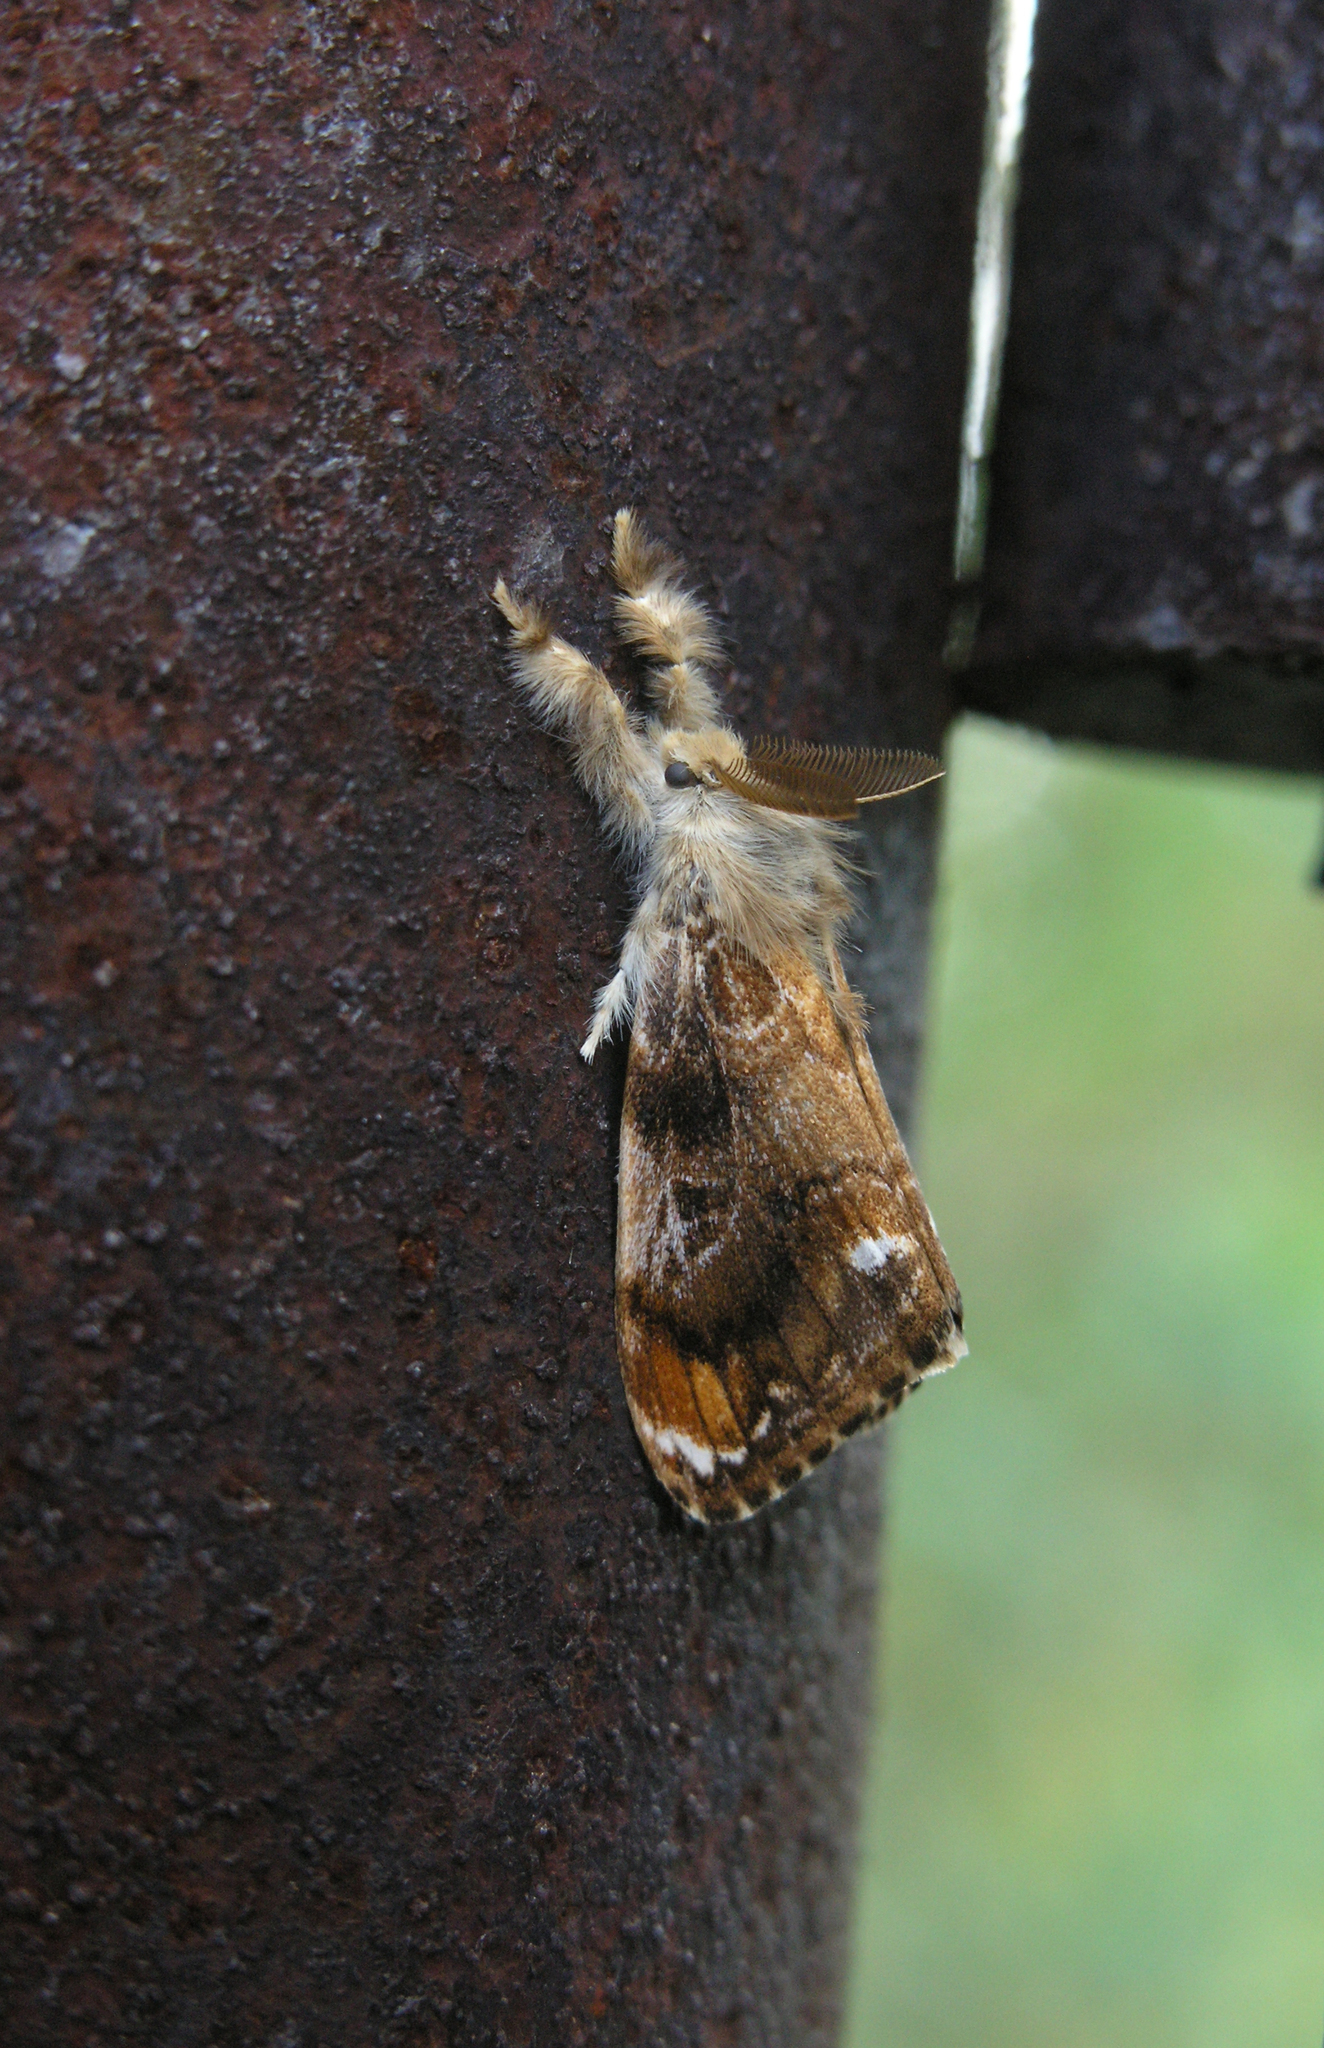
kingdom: Animalia
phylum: Arthropoda
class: Insecta
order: Lepidoptera
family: Erebidae
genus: Orgyia
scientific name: Orgyia recens
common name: Scarce vapourer
